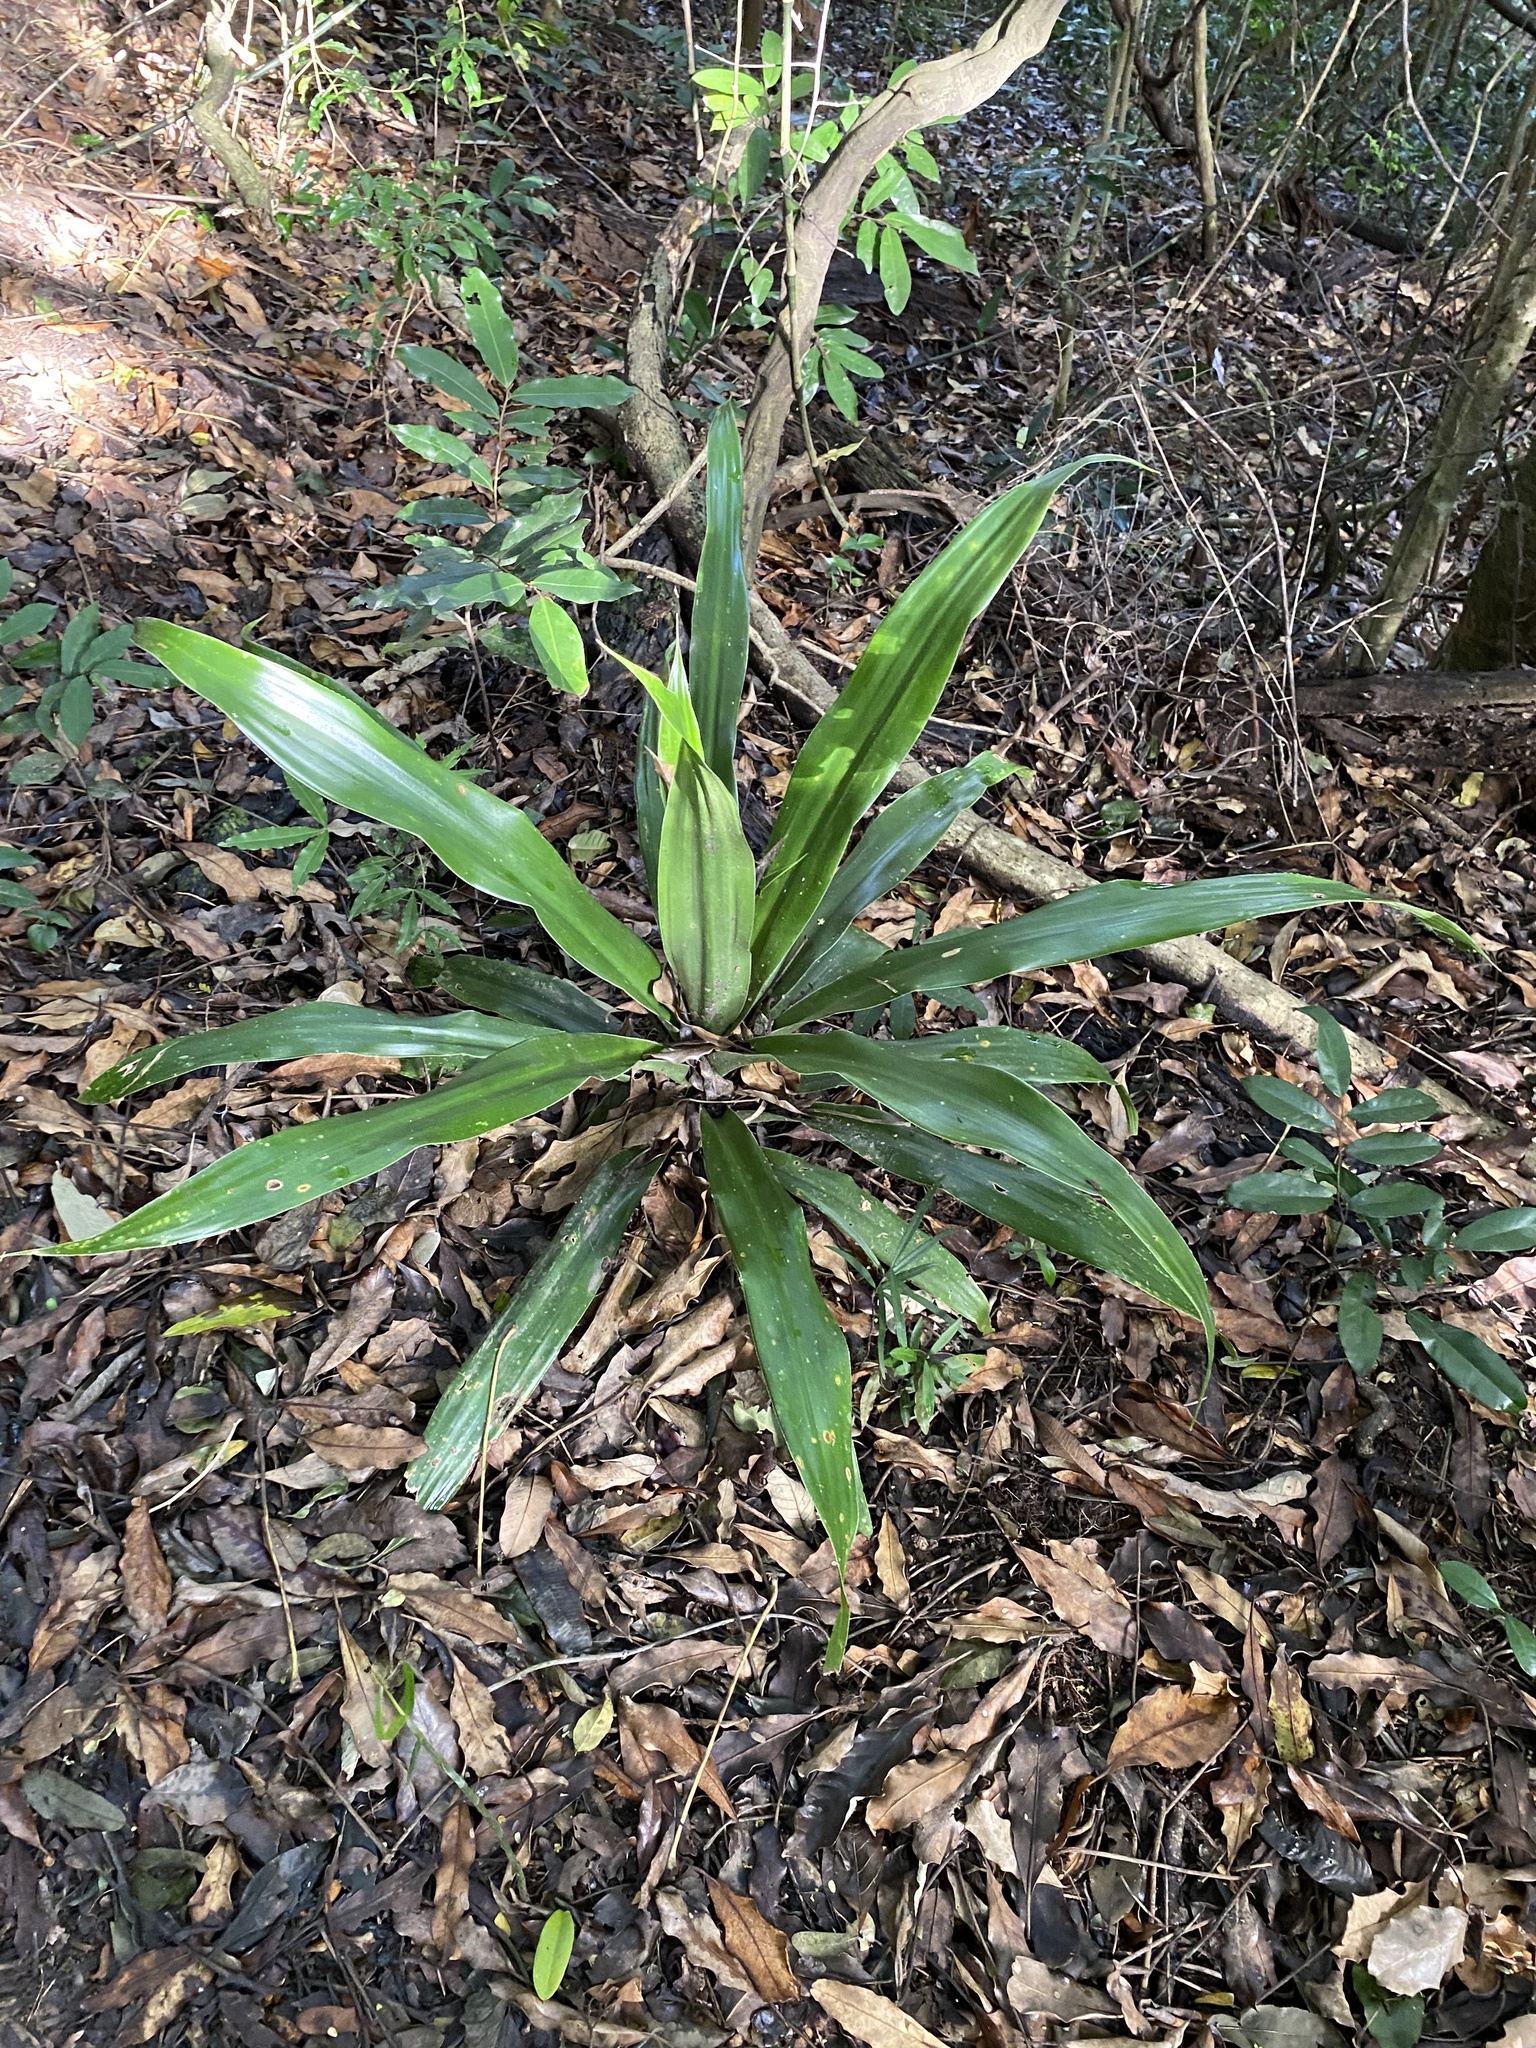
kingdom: Plantae
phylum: Tracheophyta
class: Liliopsida
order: Asparagales
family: Asparagaceae
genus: Dracaena
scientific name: Dracaena aletriformis
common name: Large-leaved dragon tree
